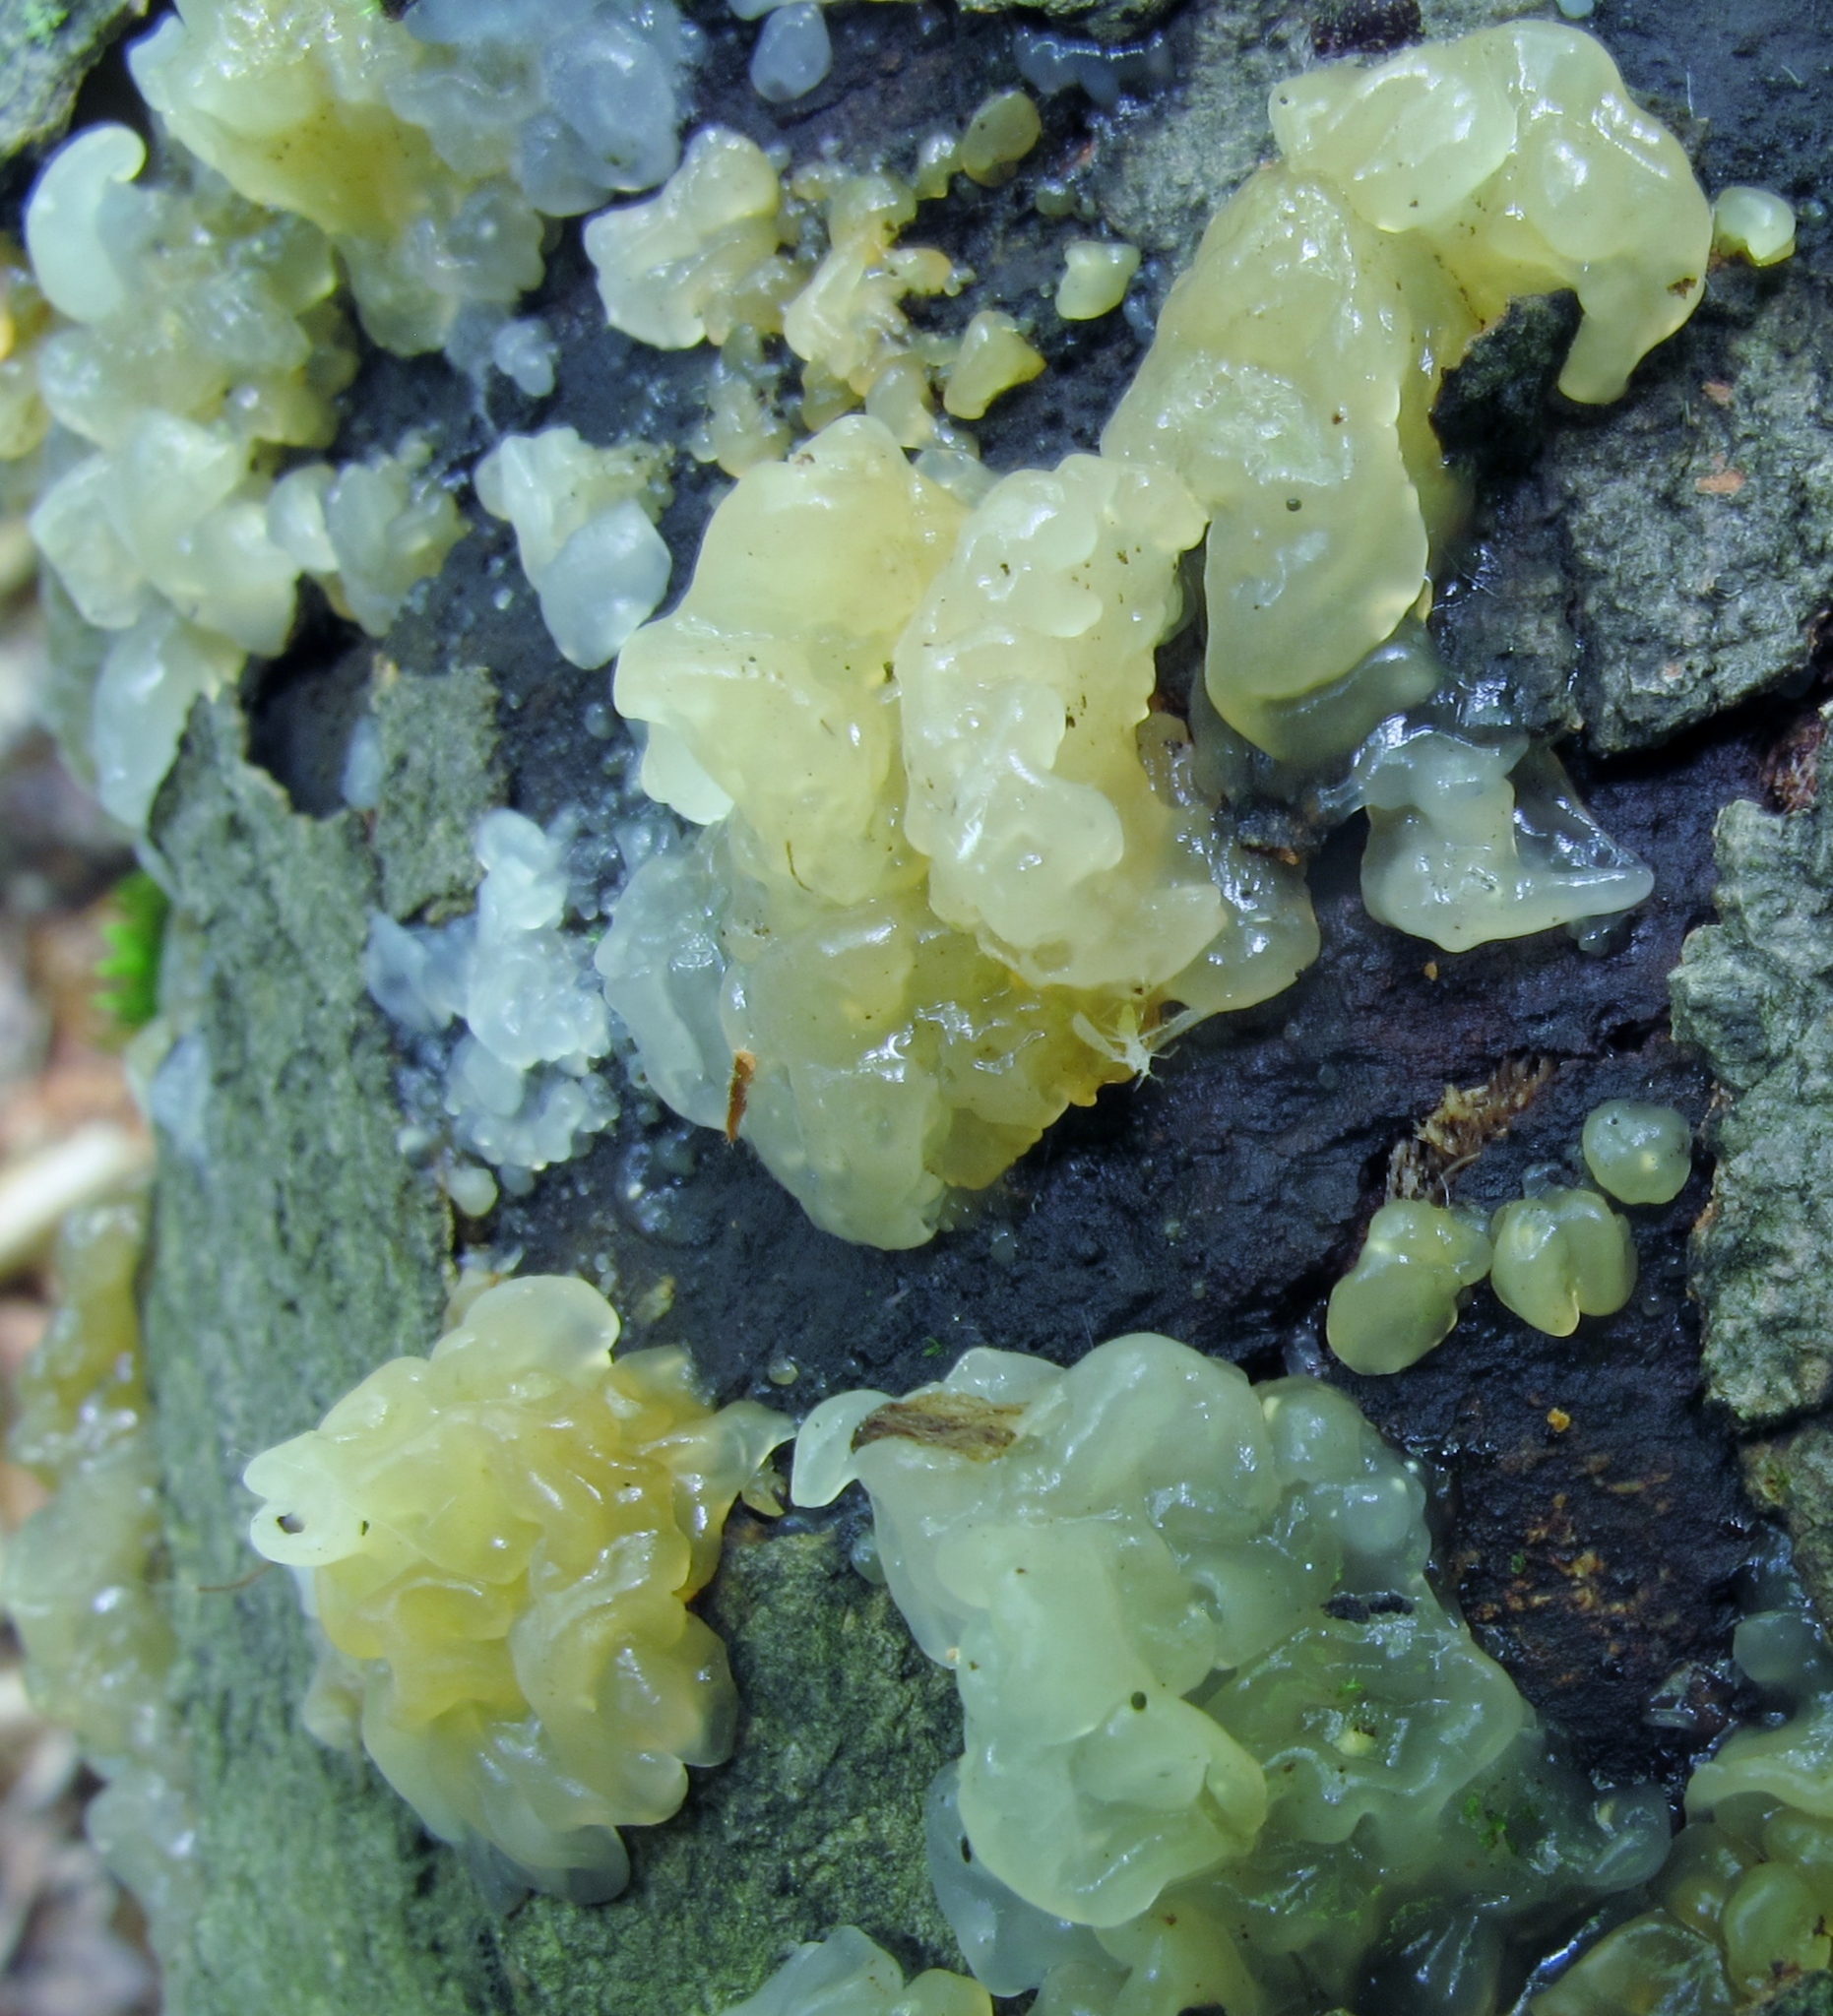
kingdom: Fungi
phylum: Basidiomycota
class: Tremellomycetes
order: Tremellales
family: Tremellaceae
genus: Tremella
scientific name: Tremella mesenterica
